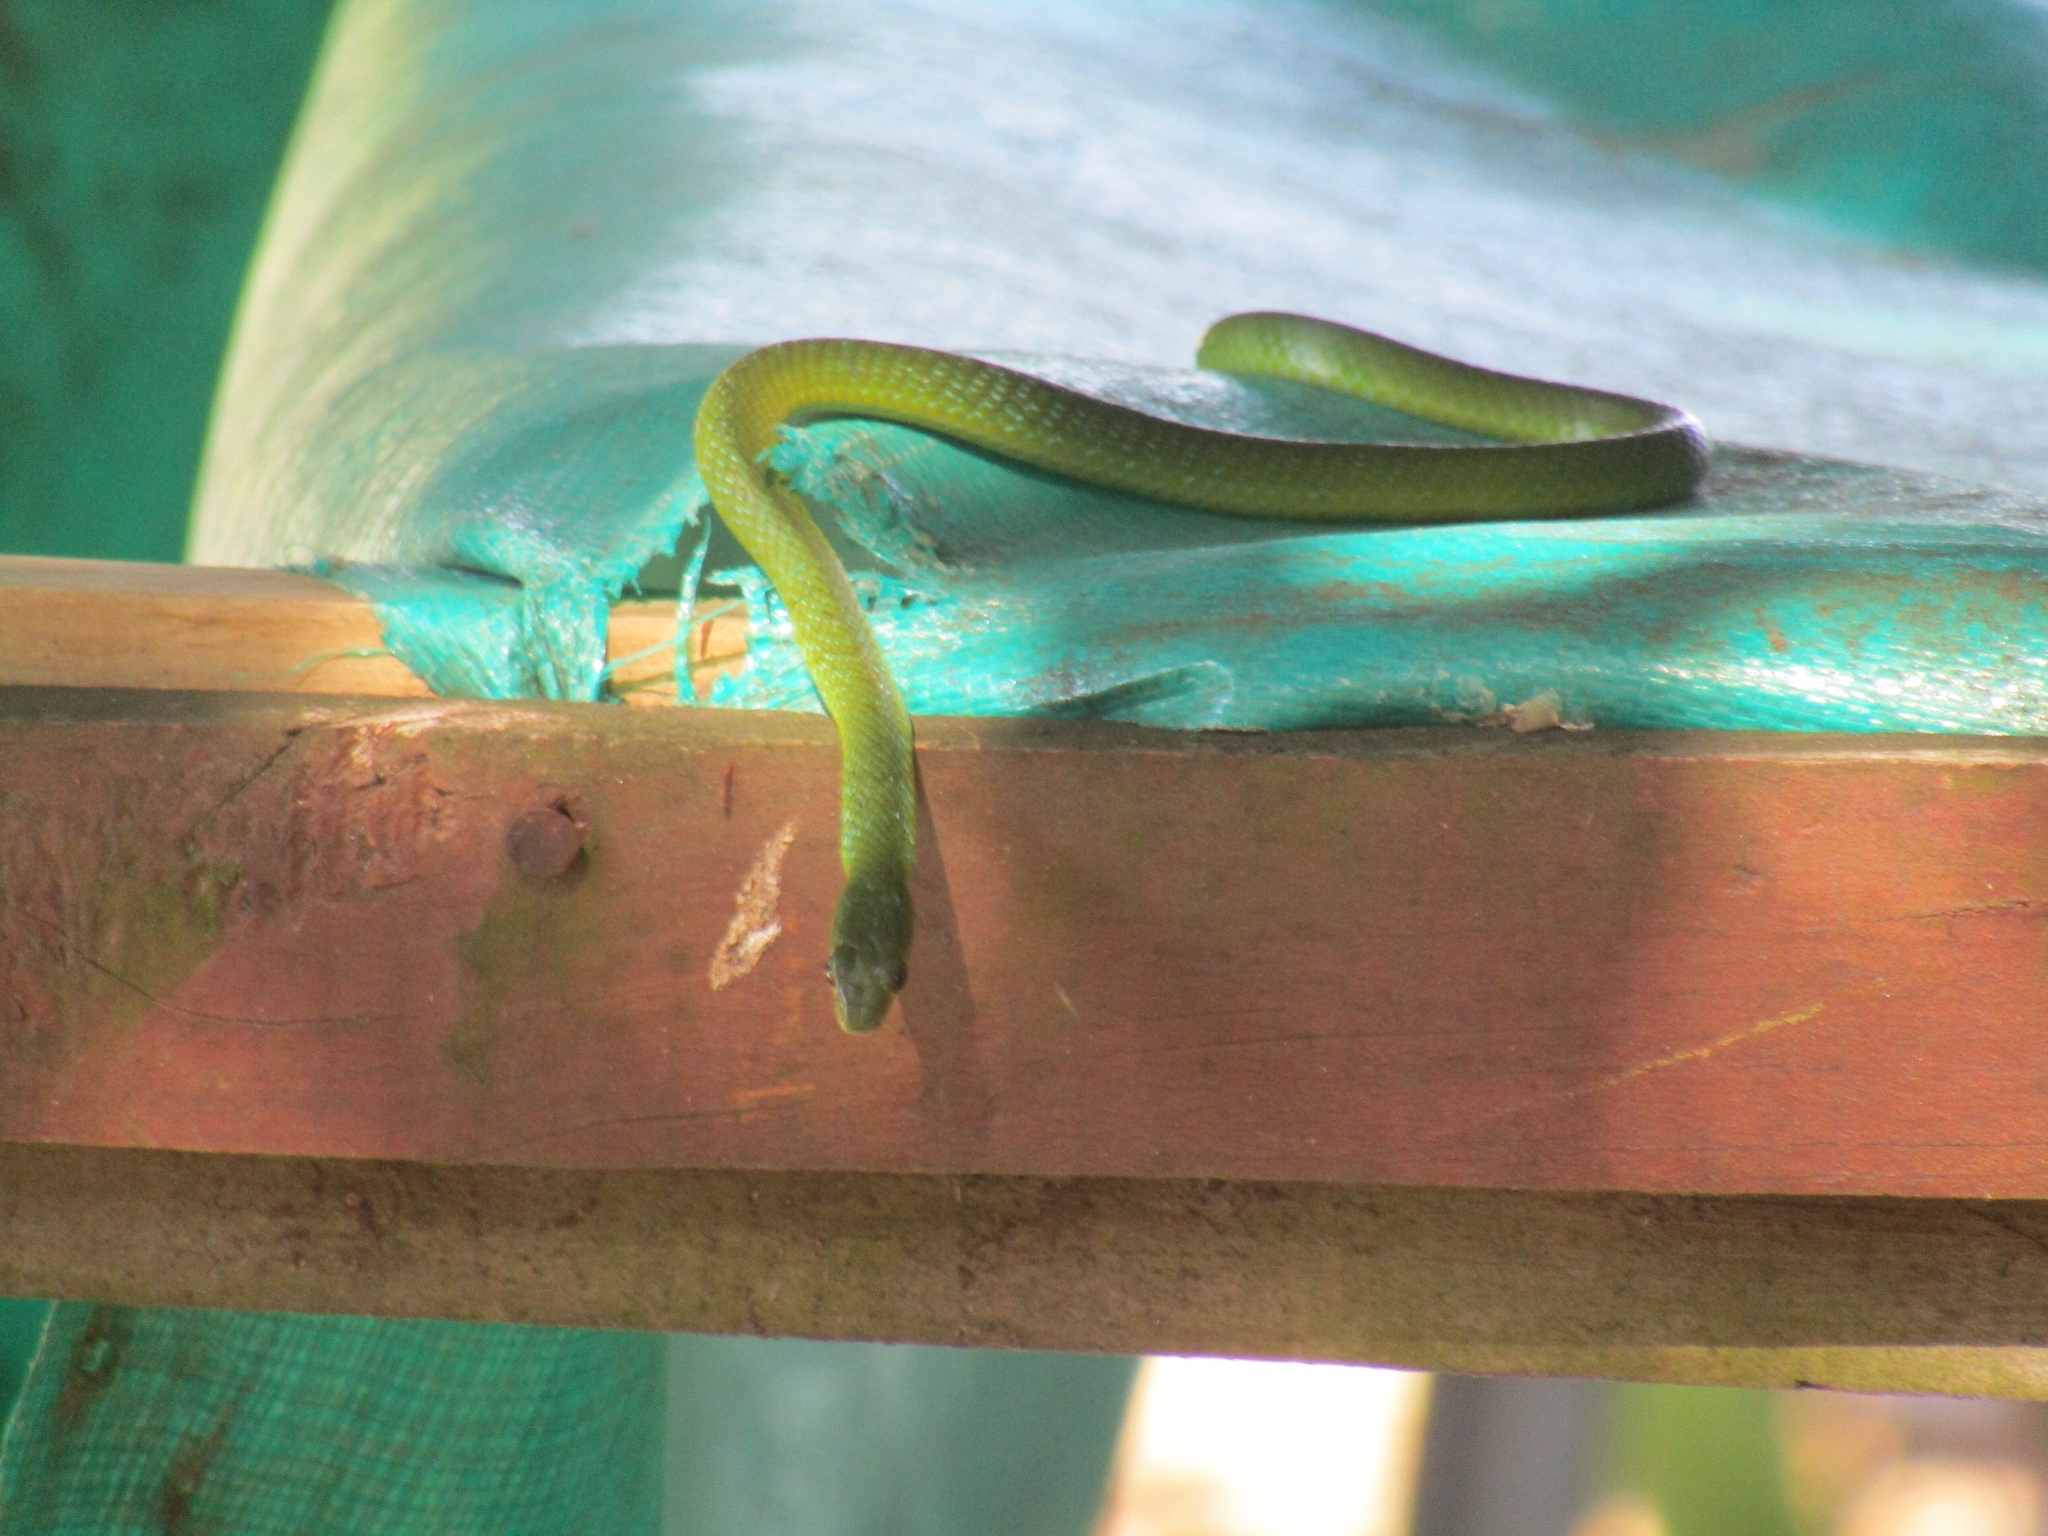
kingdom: Animalia
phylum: Chordata
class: Squamata
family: Colubridae
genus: Philothamnus
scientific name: Philothamnus occidentalis
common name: Western natal green snake
